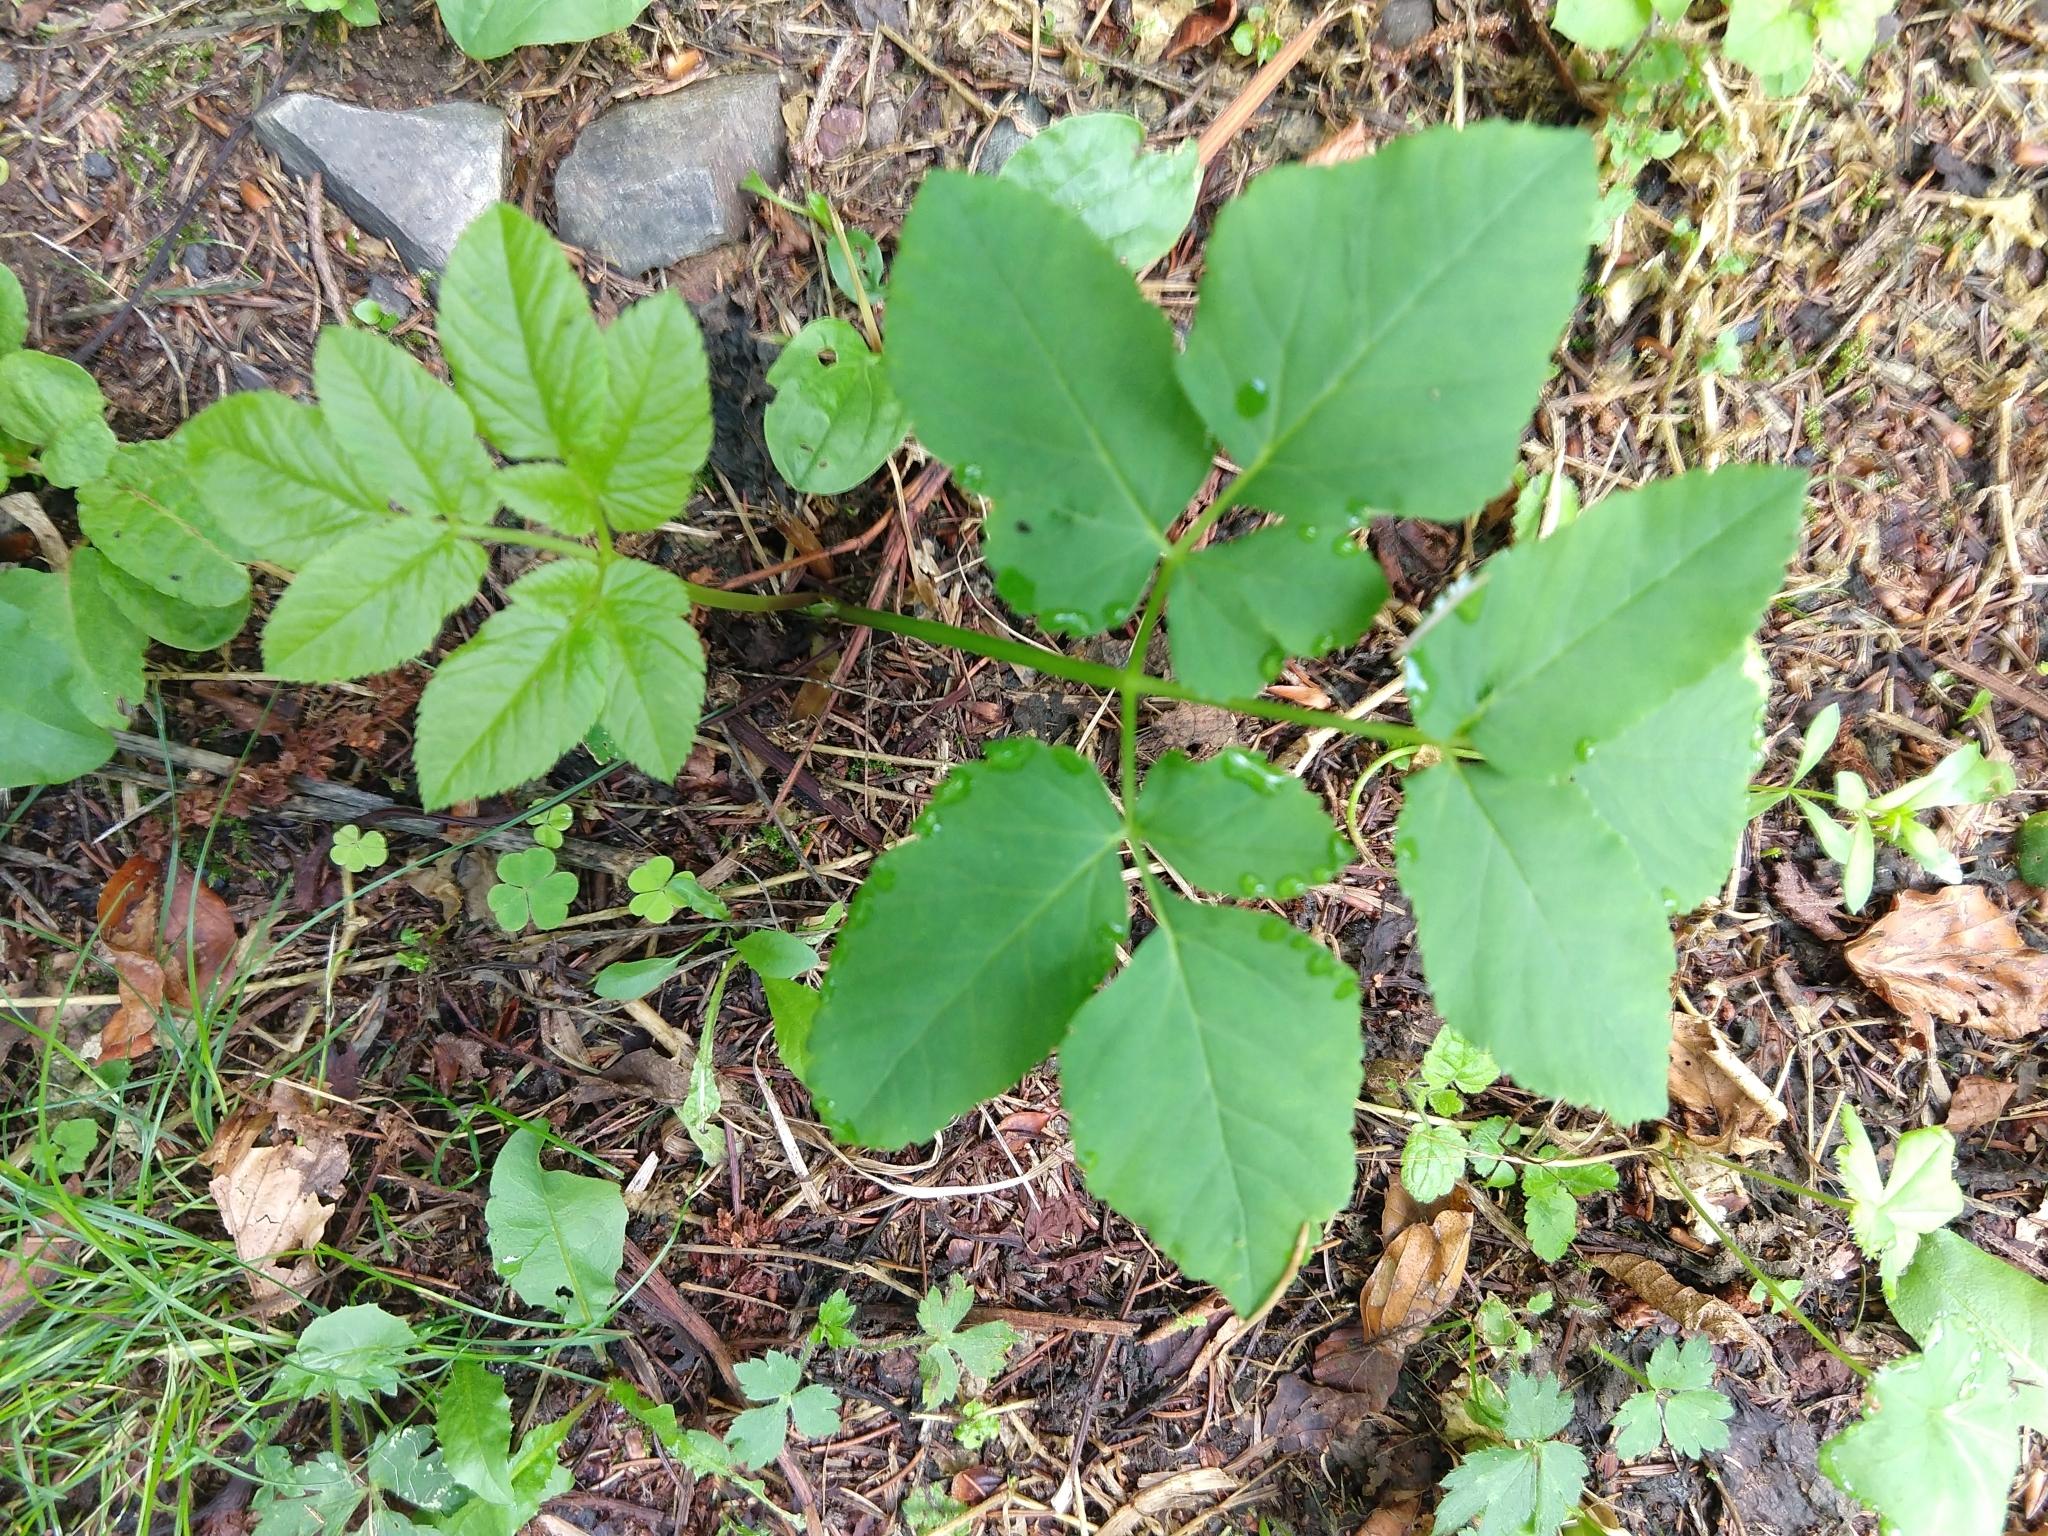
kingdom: Plantae
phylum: Tracheophyta
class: Magnoliopsida
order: Apiales
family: Apiaceae
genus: Aegopodium
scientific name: Aegopodium podagraria
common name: Ground-elder
